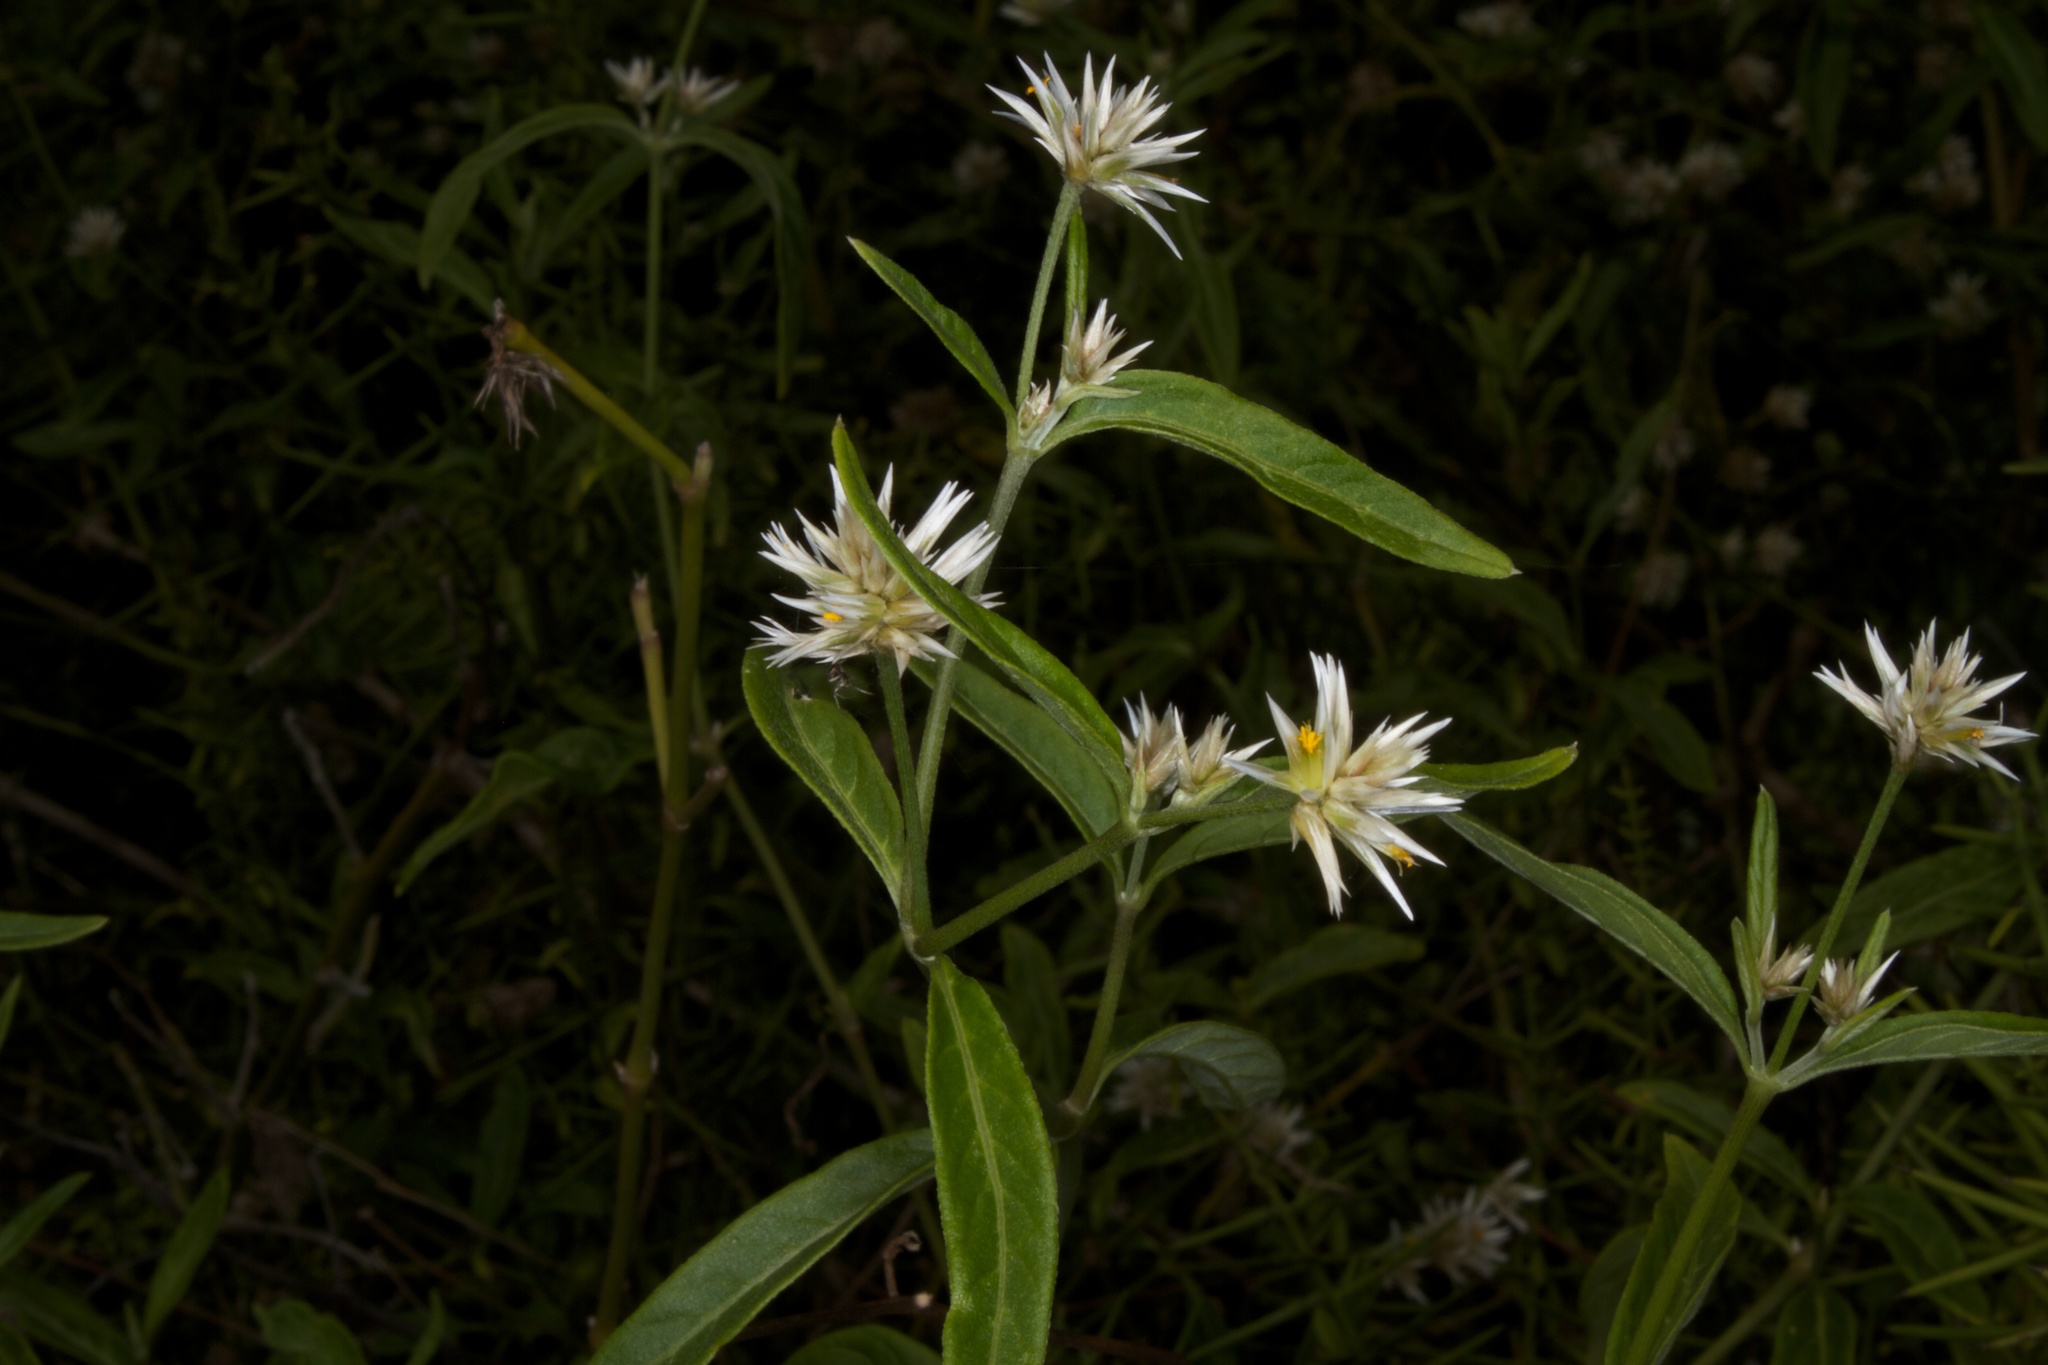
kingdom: Plantae
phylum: Tracheophyta
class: Magnoliopsida
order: Caryophyllales
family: Amaranthaceae
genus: Alternanthera
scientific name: Alternanthera echinocephala
